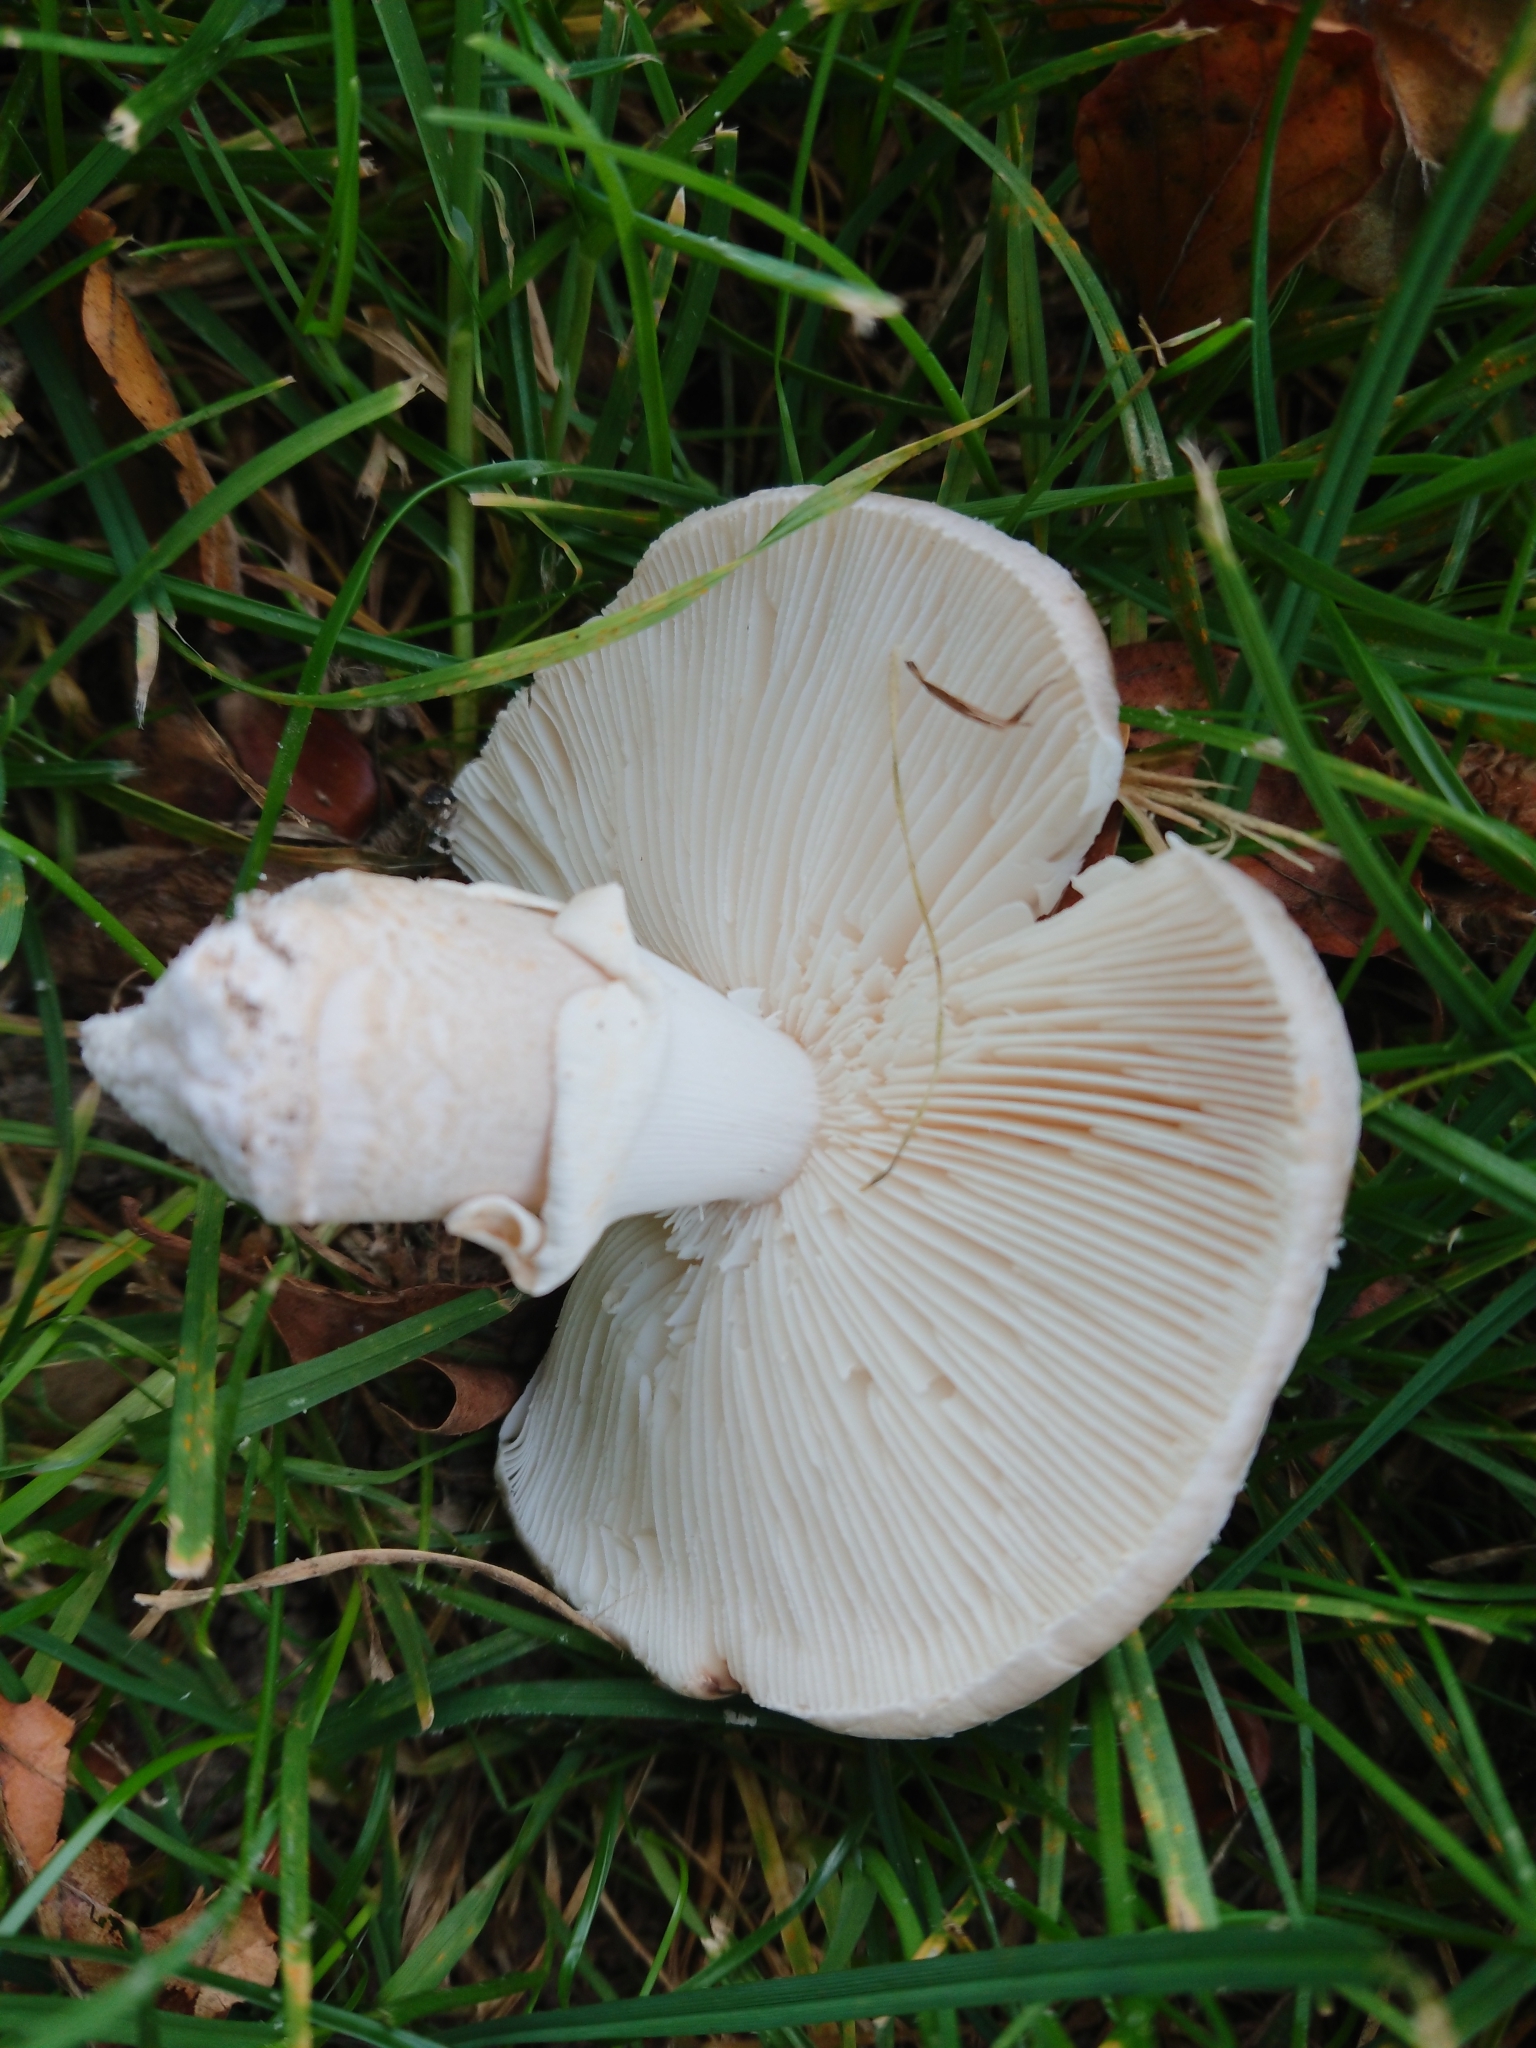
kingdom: Fungi
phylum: Basidiomycota
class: Agaricomycetes
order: Agaricales
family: Amanitaceae
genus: Amanita
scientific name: Amanita excelsa
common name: European false blusher
